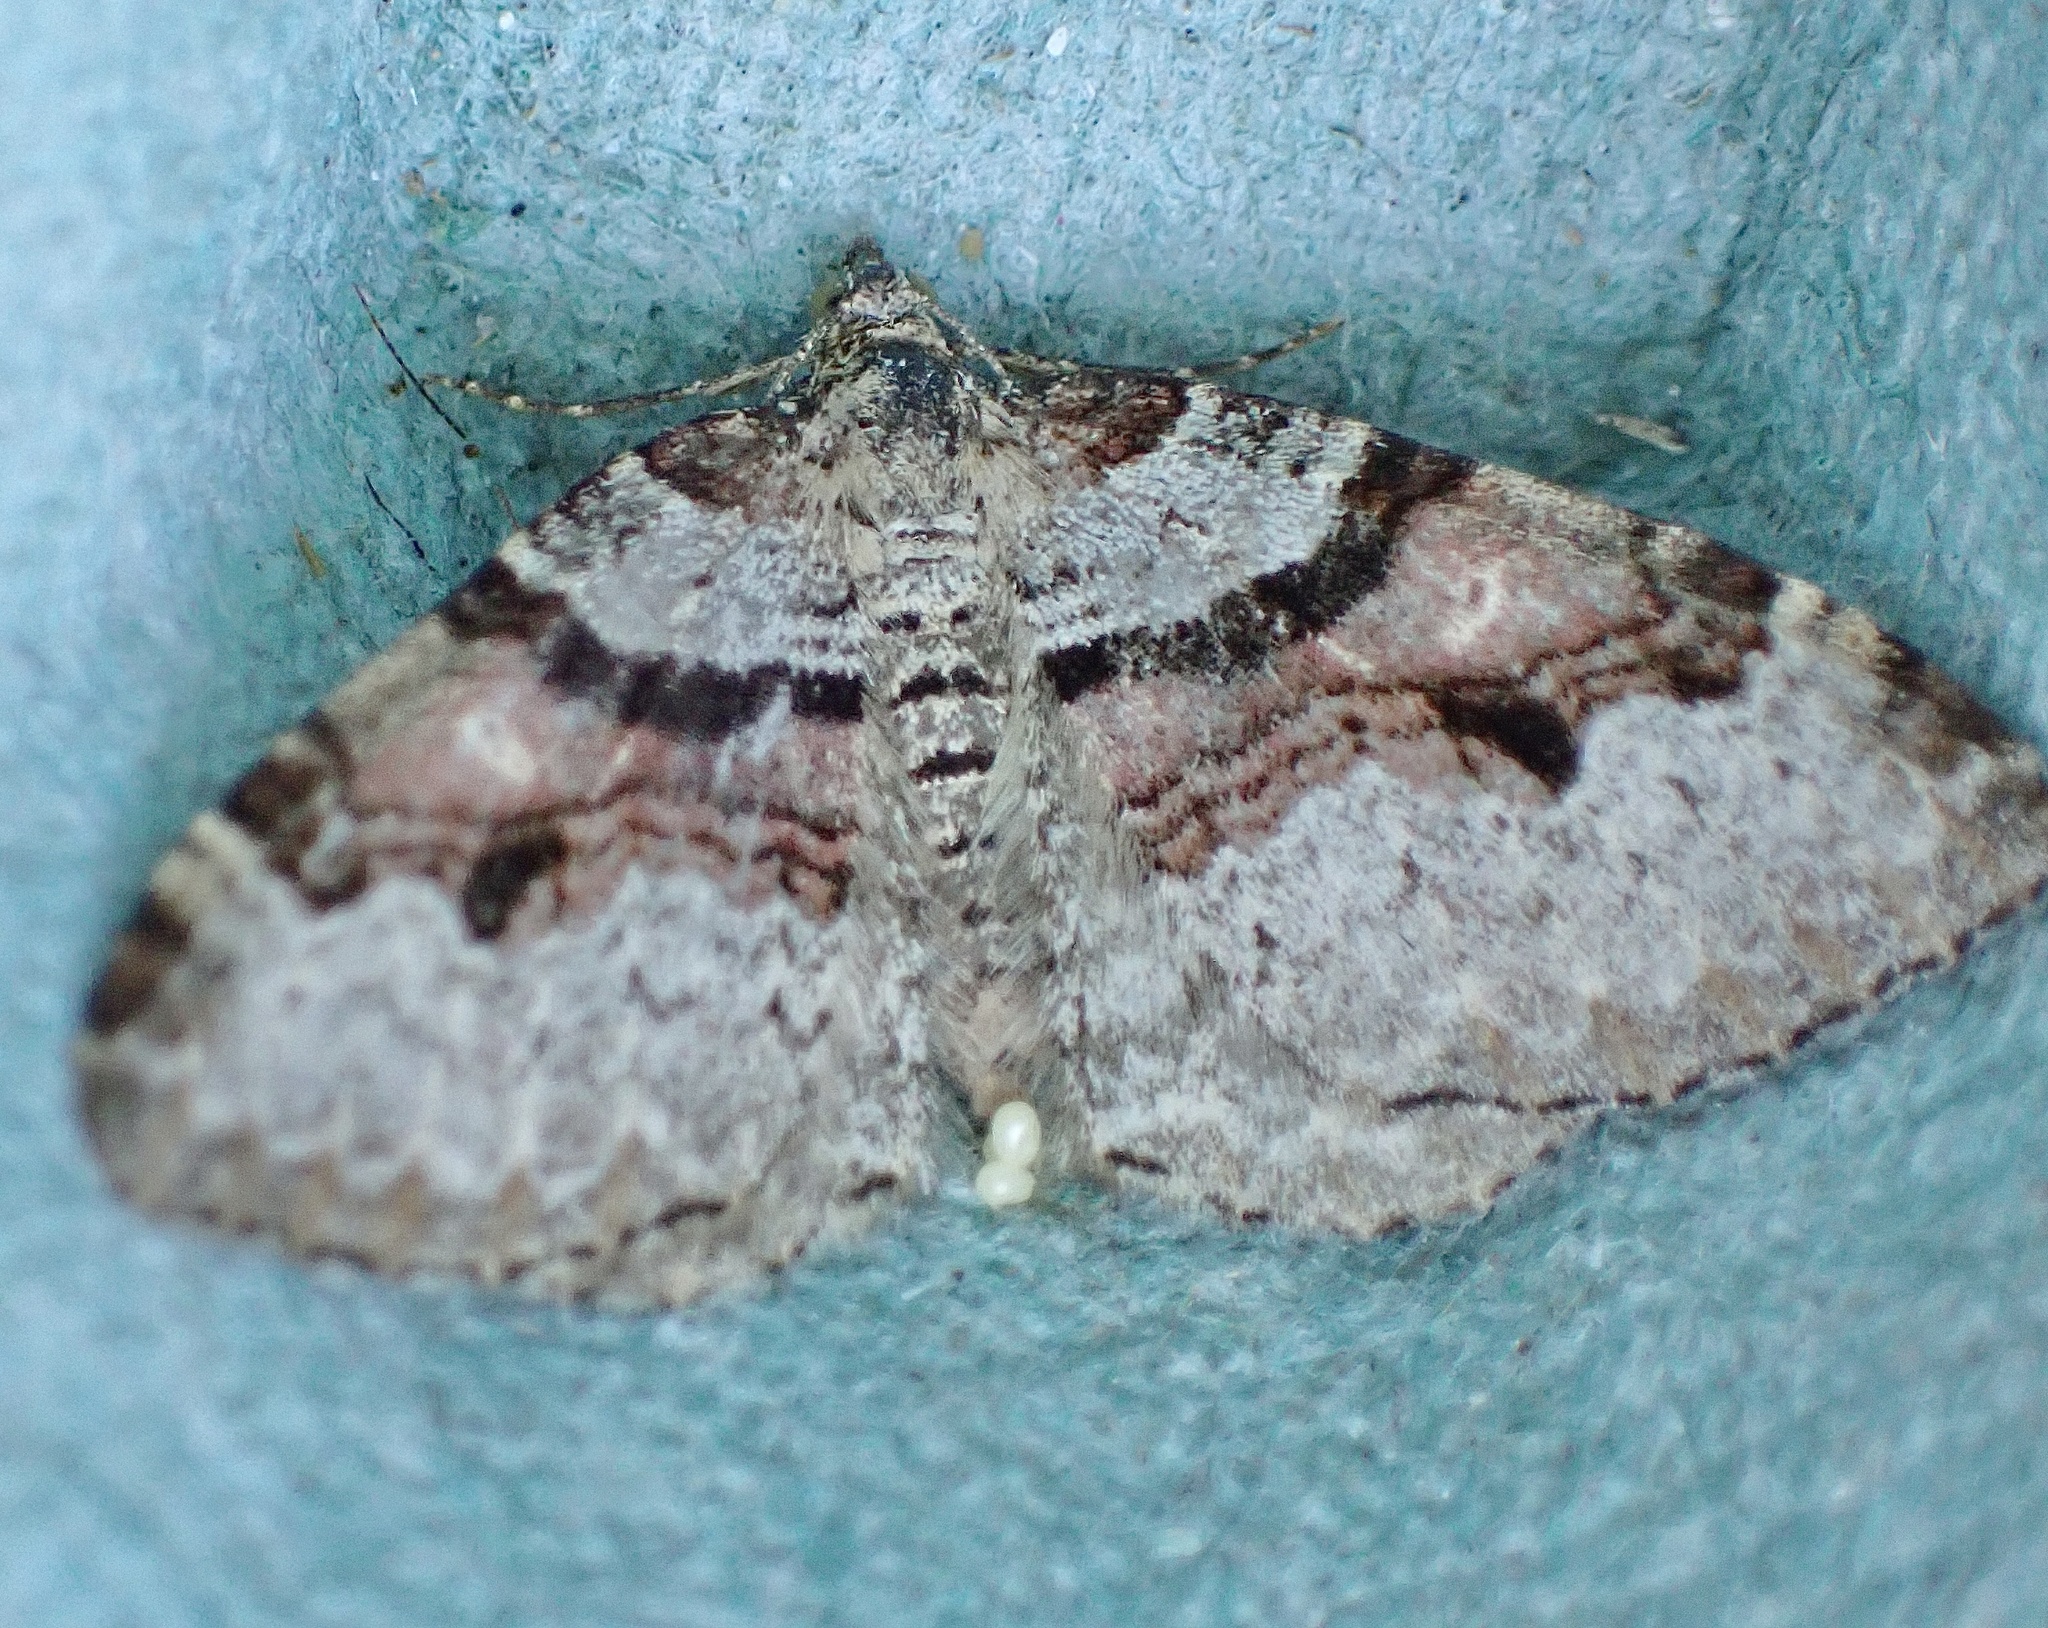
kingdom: Animalia
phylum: Arthropoda
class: Insecta
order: Lepidoptera
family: Geometridae
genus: Xanthorhoe
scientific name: Xanthorhoe designata
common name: Flame carpet
